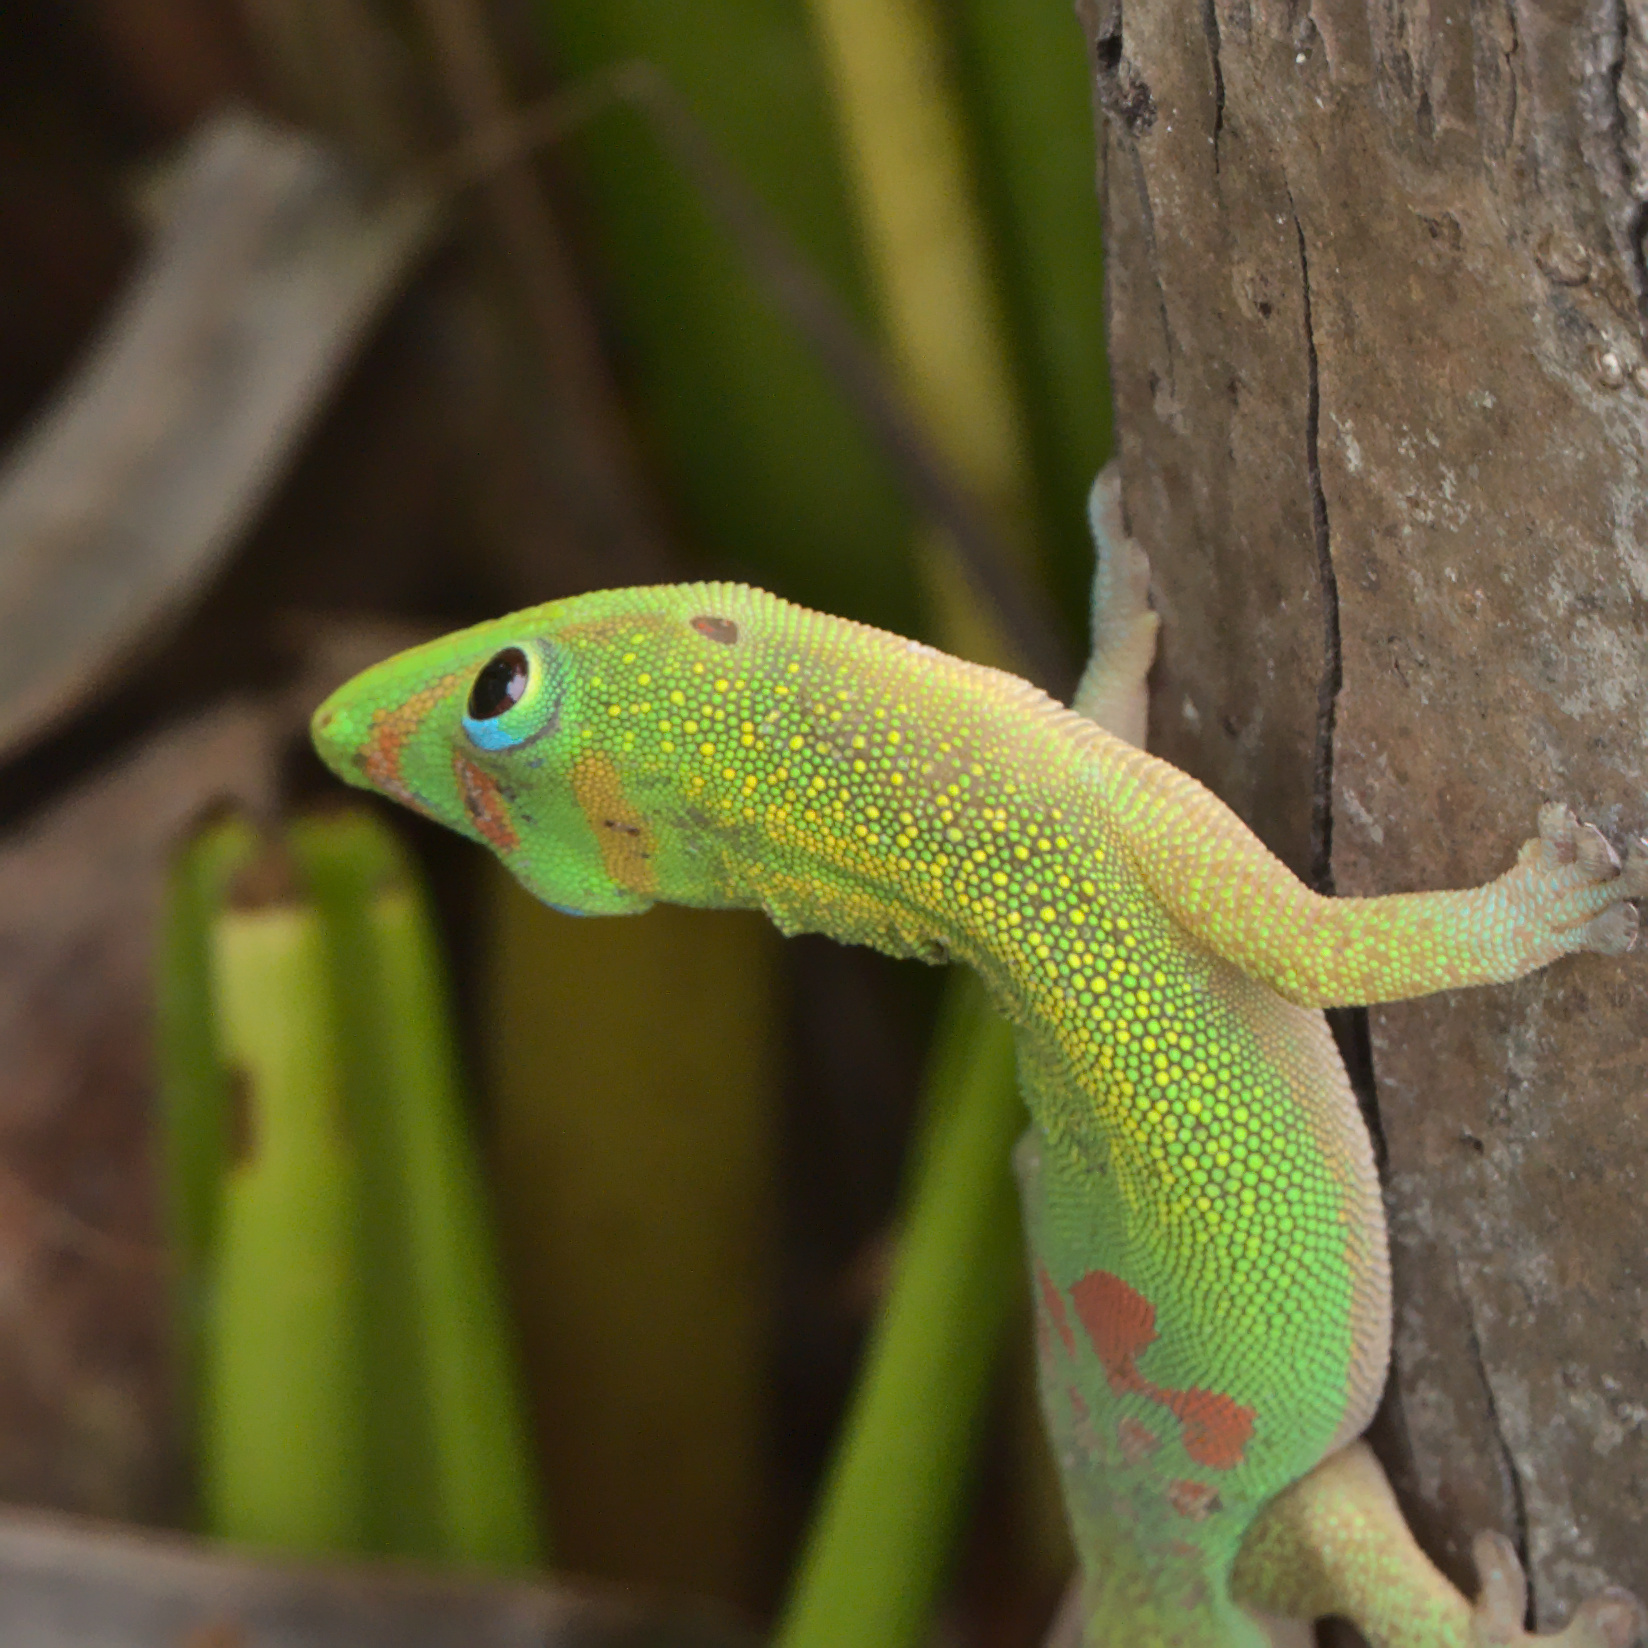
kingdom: Animalia
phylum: Chordata
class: Squamata
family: Gekkonidae
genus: Phelsuma
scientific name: Phelsuma laticauda
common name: Gold dust day gecko
